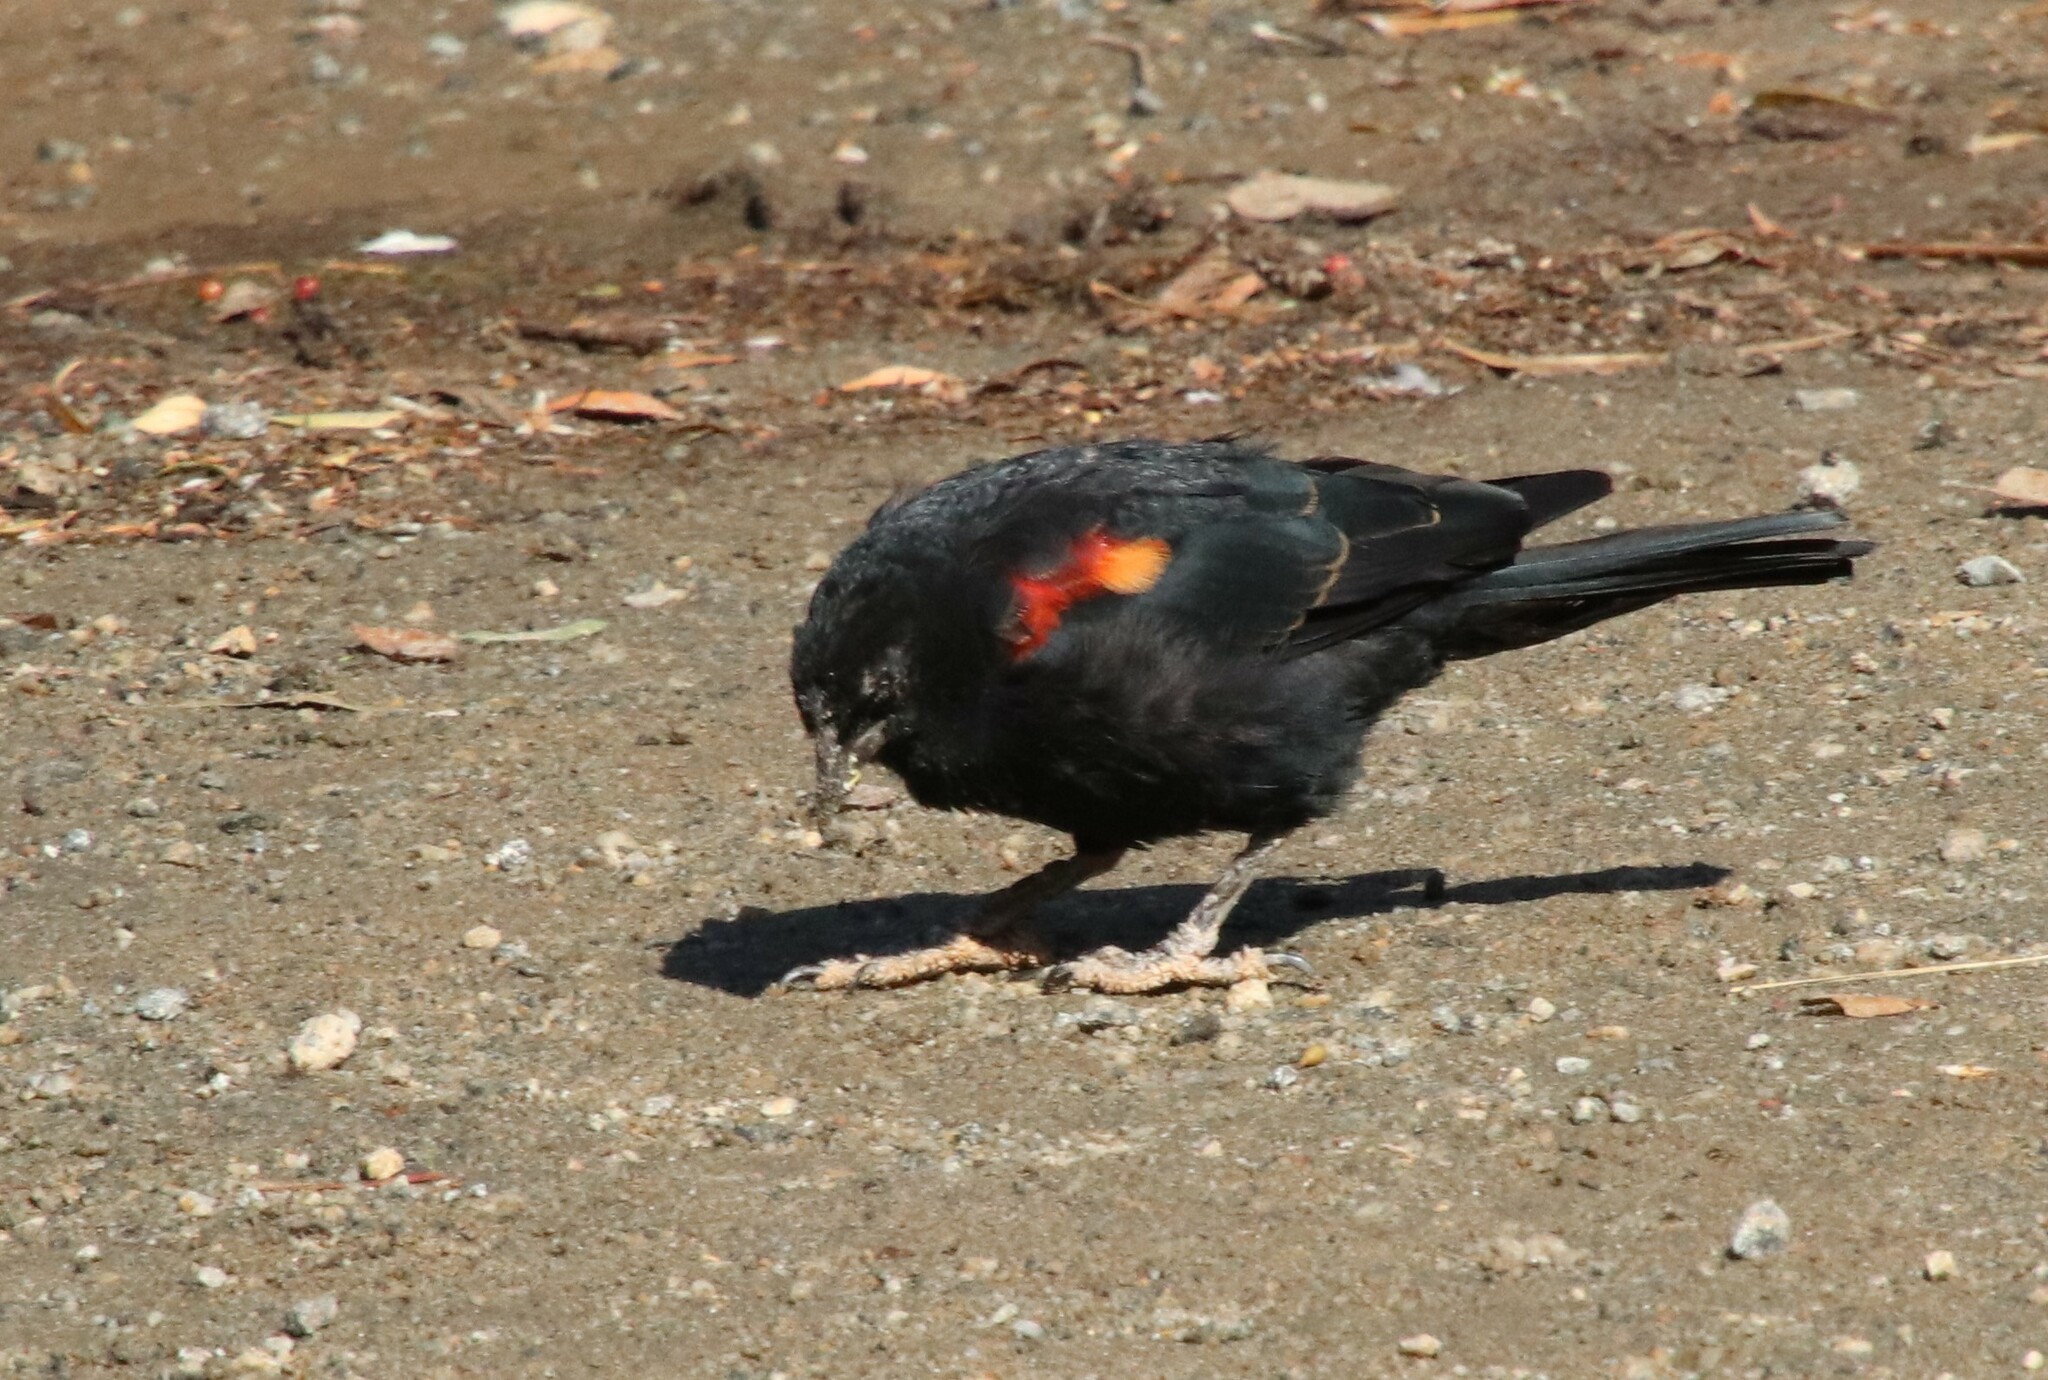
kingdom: Animalia
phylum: Chordata
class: Aves
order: Passeriformes
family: Icteridae
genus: Agelaius
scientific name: Agelaius phoeniceus
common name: Red-winged blackbird
